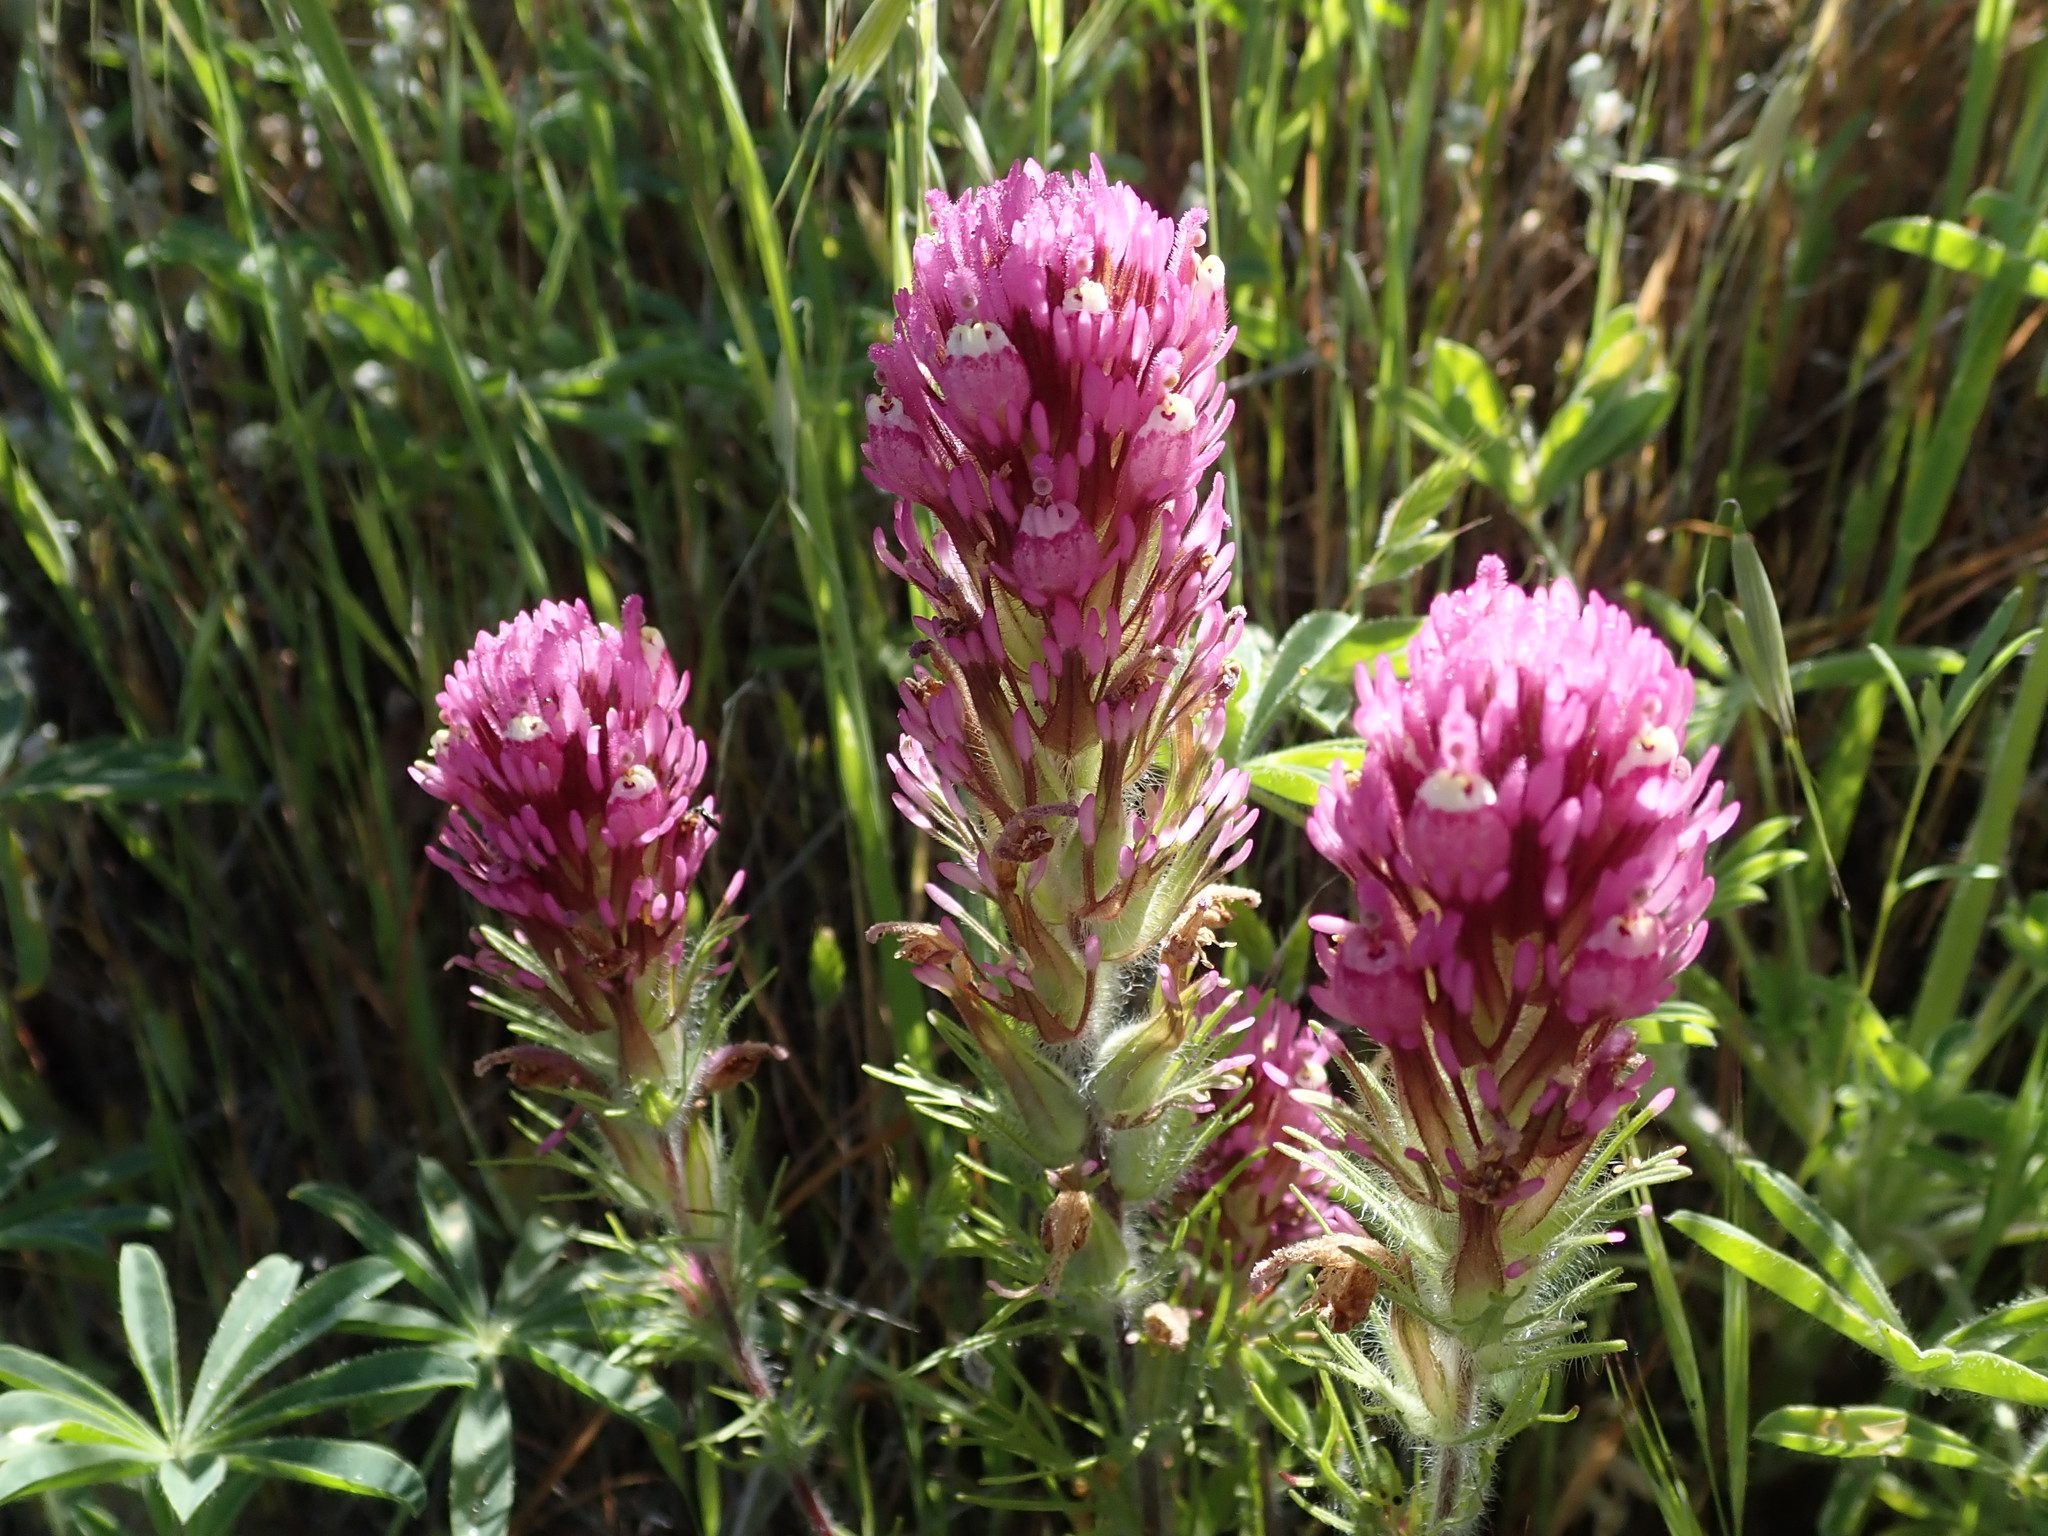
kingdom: Plantae
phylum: Tracheophyta
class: Magnoliopsida
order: Lamiales
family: Orobanchaceae
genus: Castilleja
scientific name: Castilleja exserta
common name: Purple owl-clover
